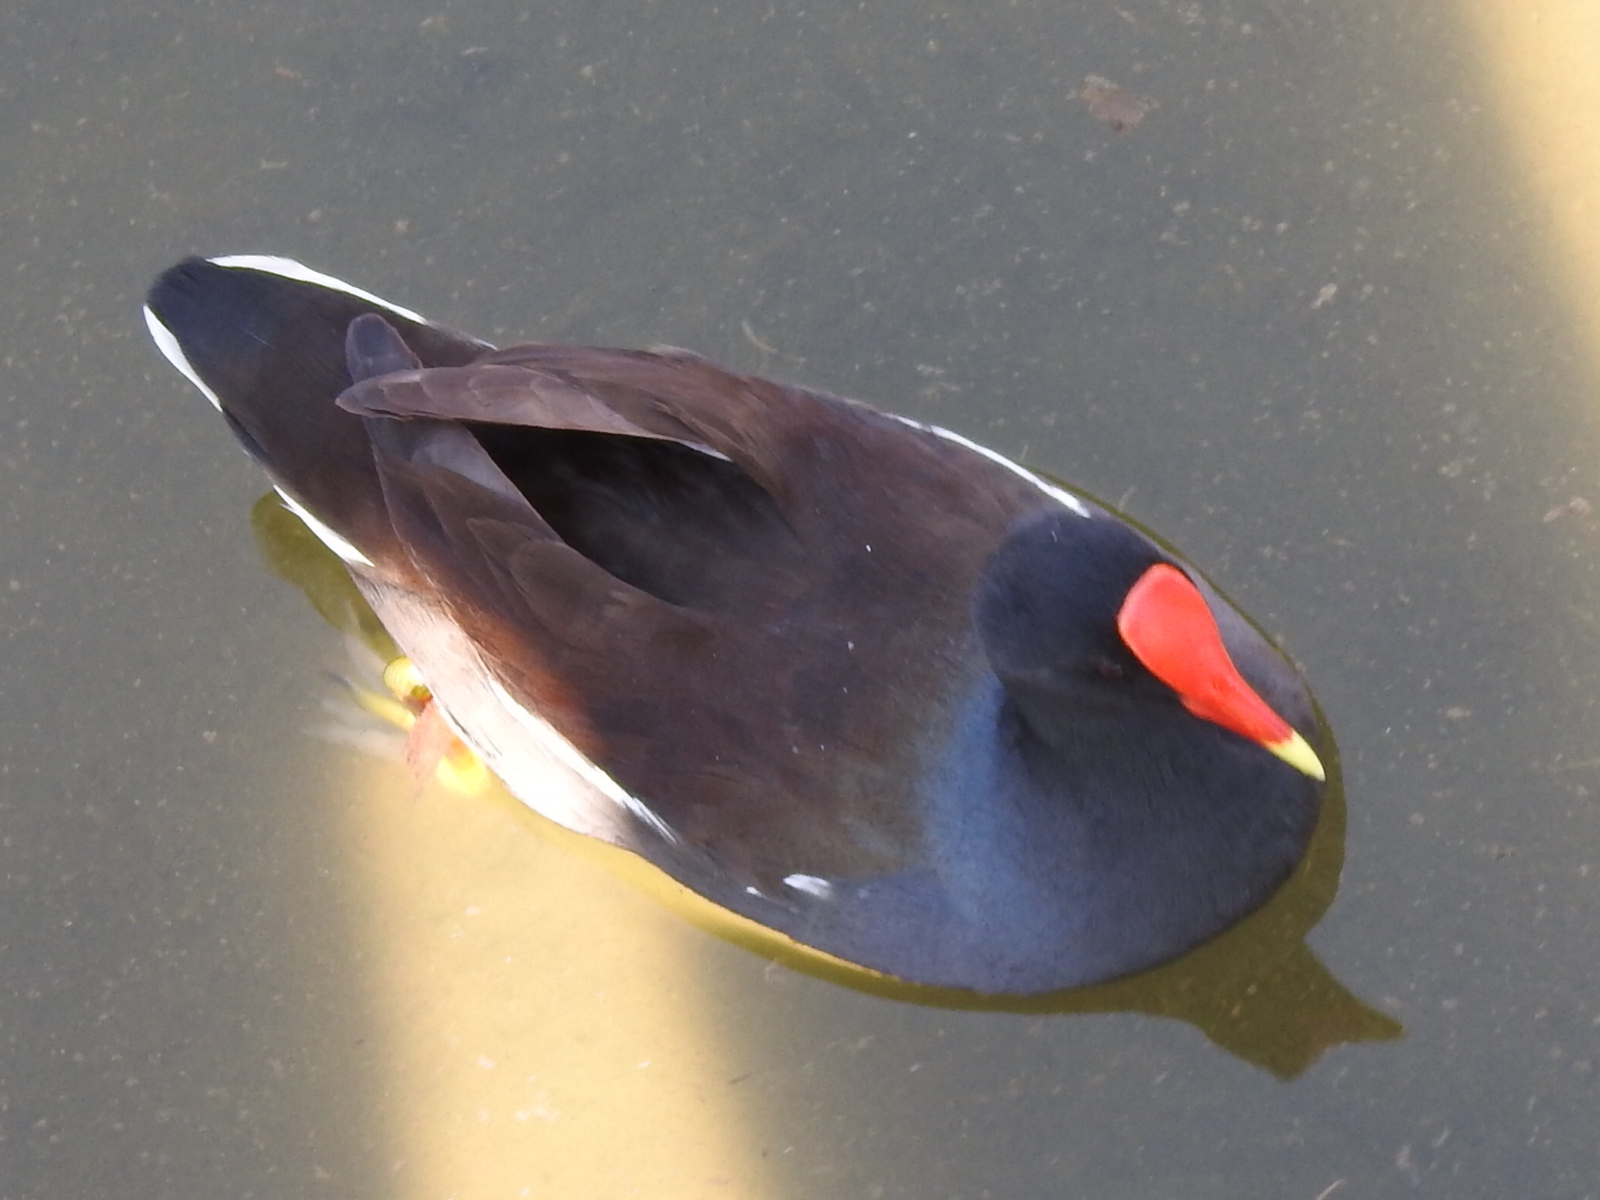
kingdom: Animalia
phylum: Chordata
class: Aves
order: Gruiformes
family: Rallidae
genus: Gallinula
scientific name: Gallinula chloropus
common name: Common moorhen
